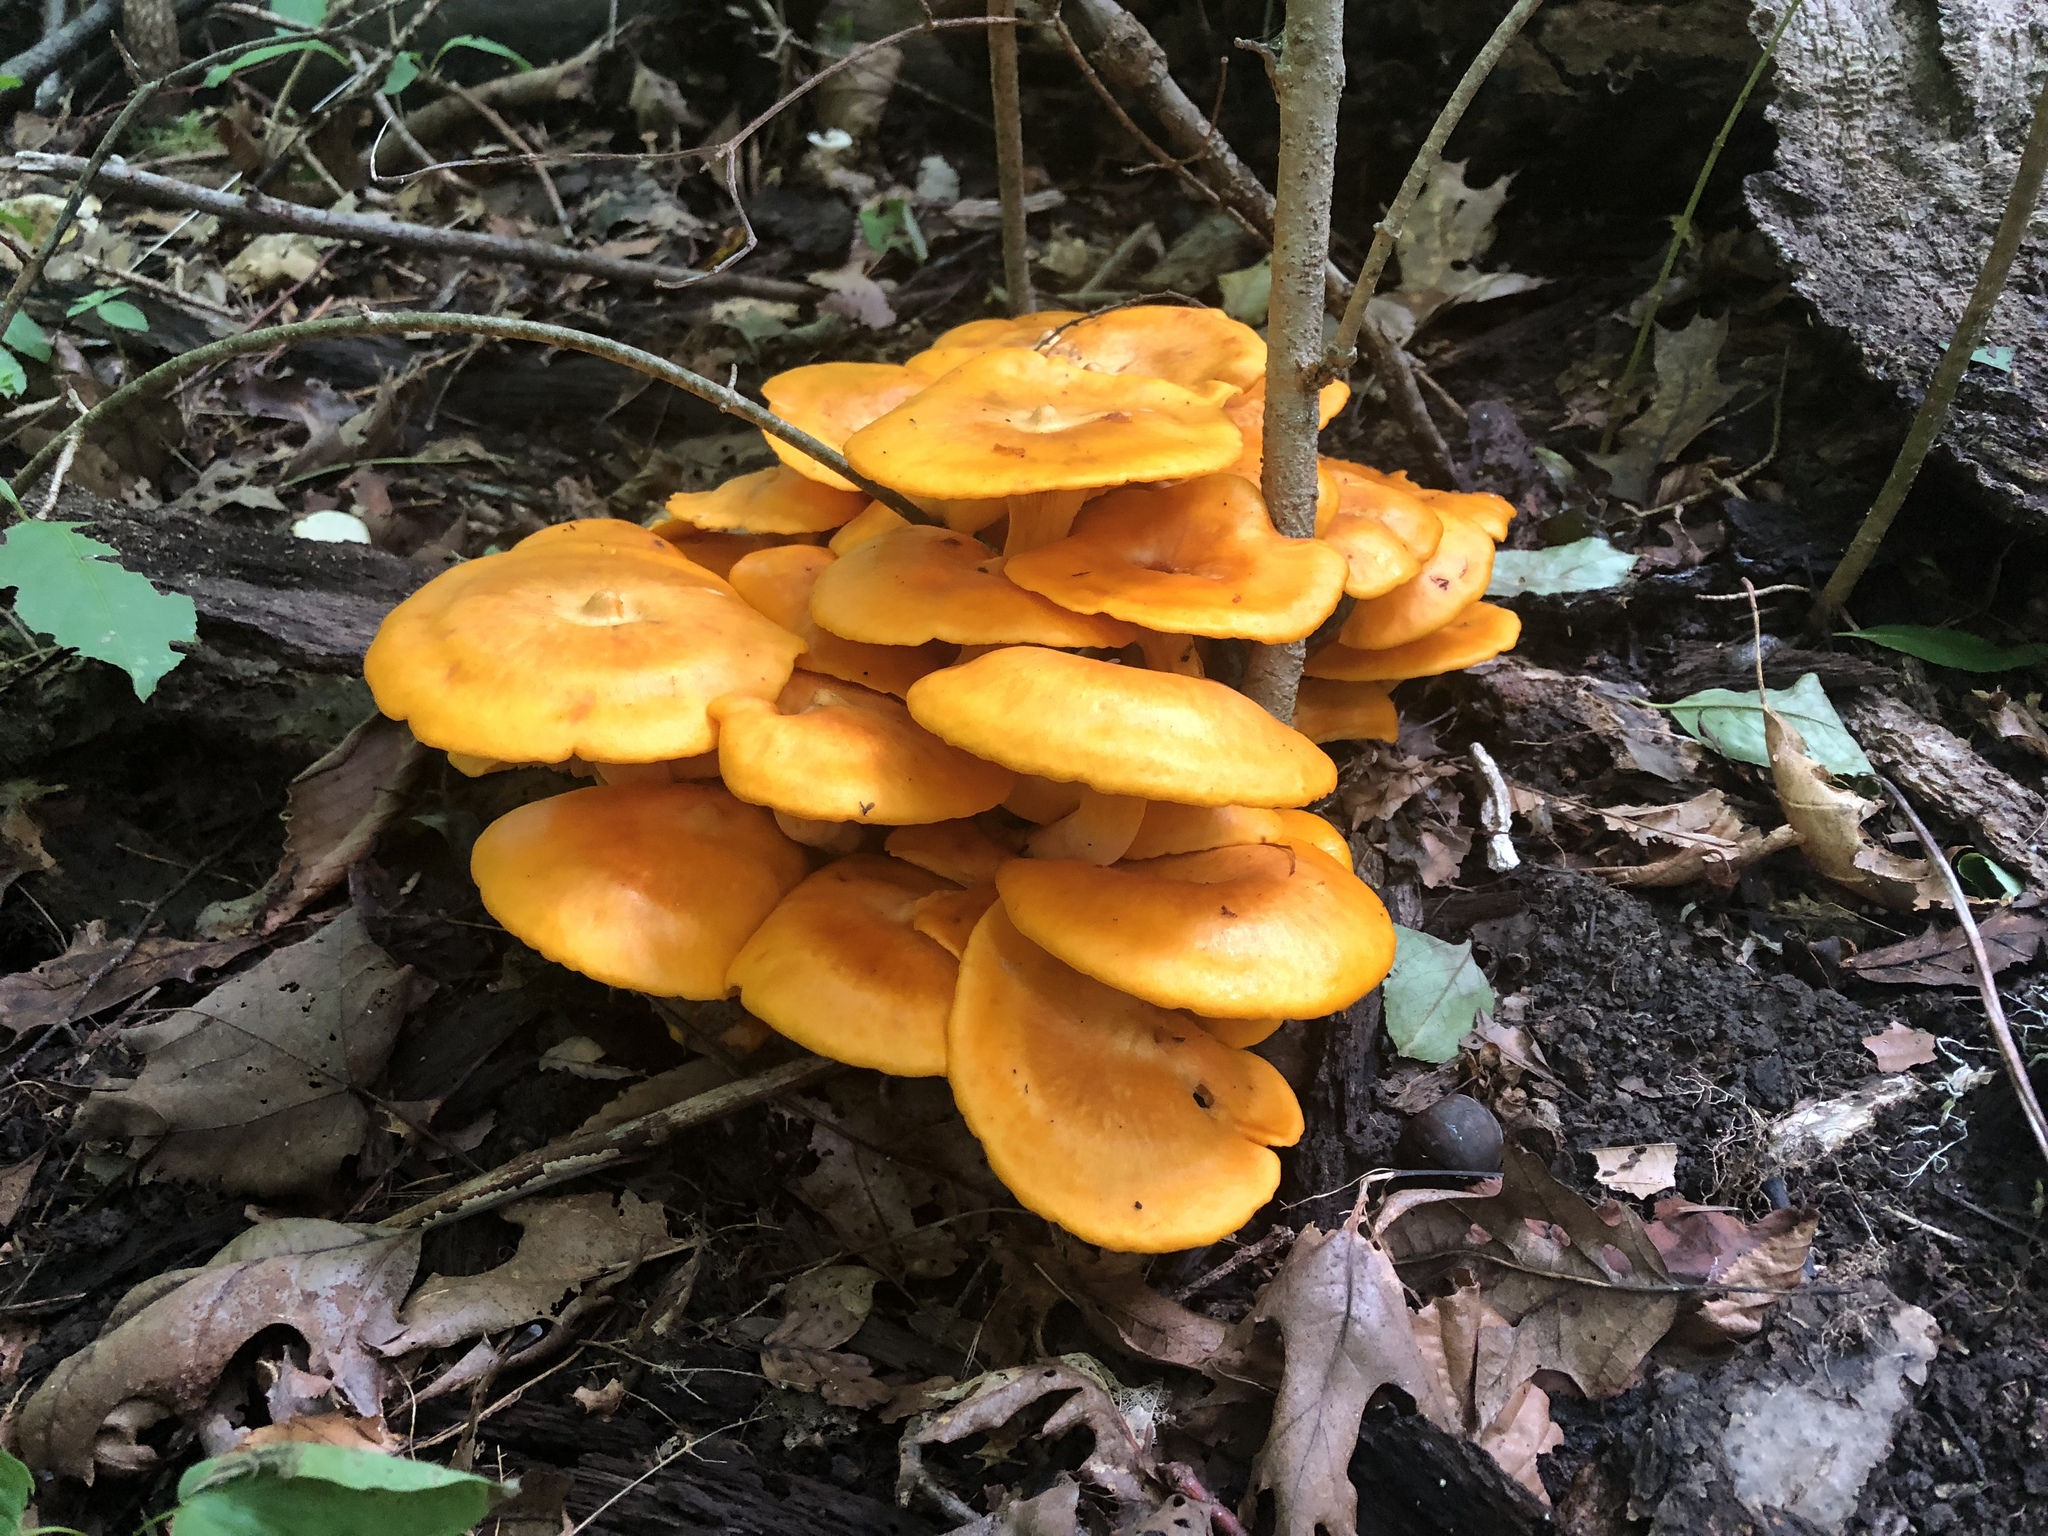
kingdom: Fungi
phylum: Basidiomycota
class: Agaricomycetes
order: Agaricales
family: Omphalotaceae
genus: Omphalotus
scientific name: Omphalotus illudens
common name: Jack o lantern
